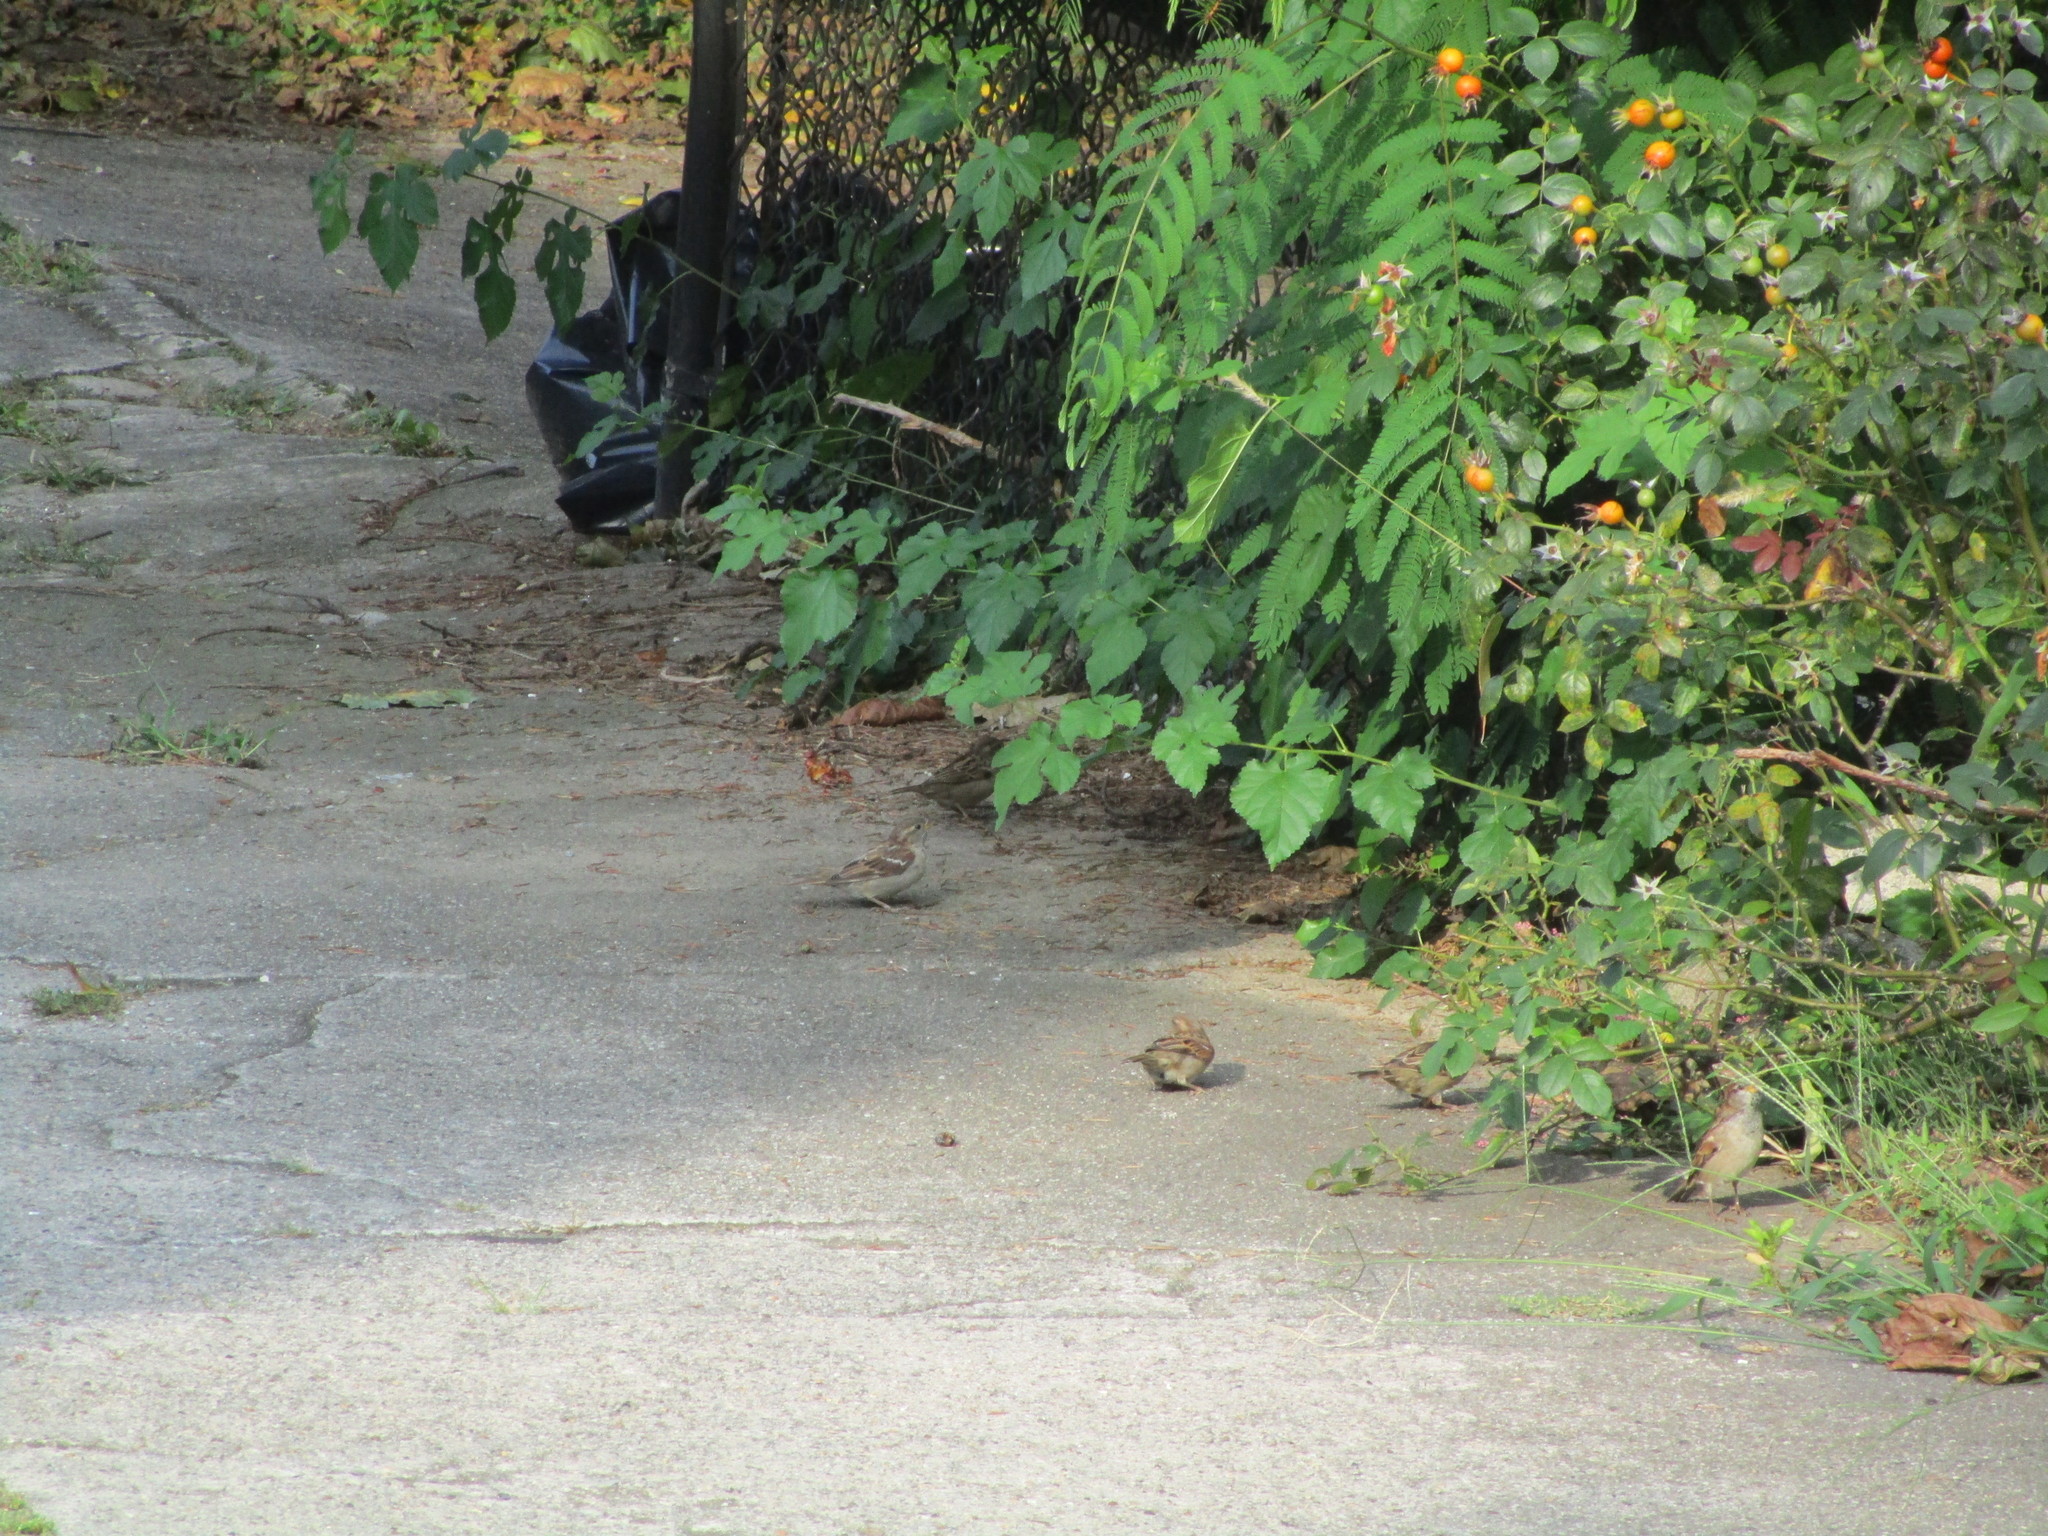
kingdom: Animalia
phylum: Chordata
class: Aves
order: Passeriformes
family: Passeridae
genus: Passer
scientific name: Passer domesticus
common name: House sparrow
